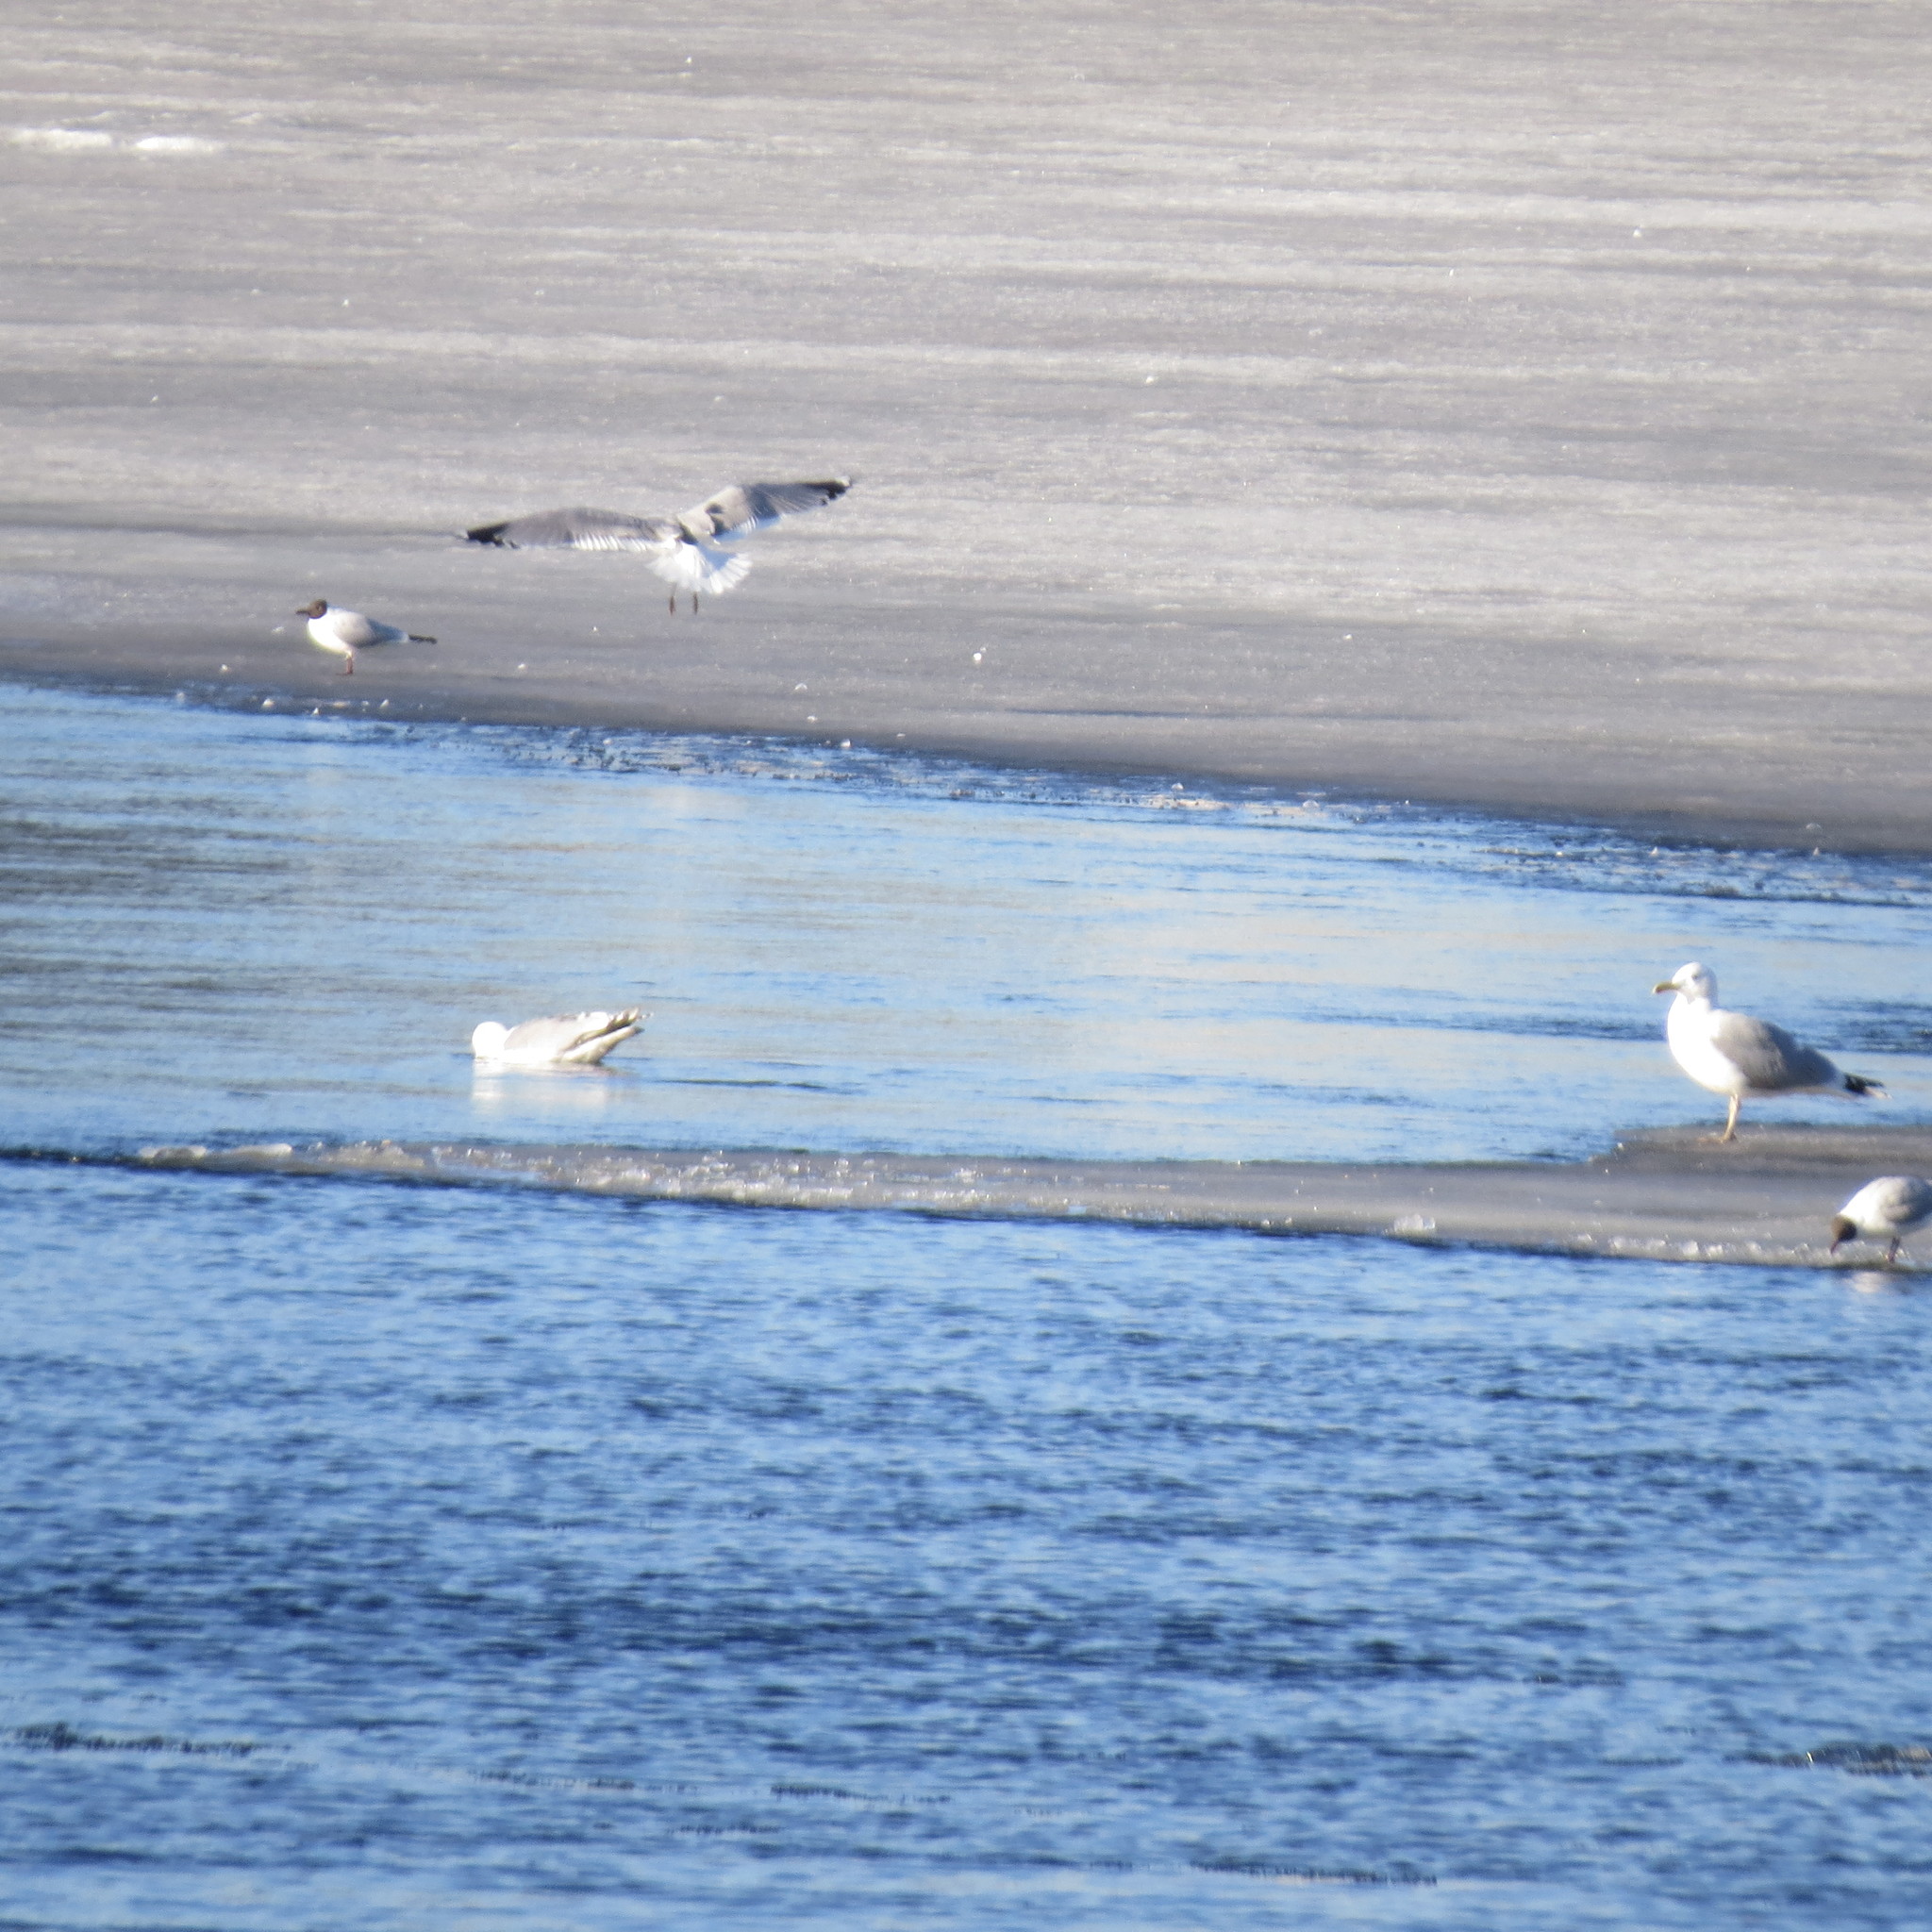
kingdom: Animalia
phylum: Chordata
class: Aves
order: Charadriiformes
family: Laridae
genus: Larus
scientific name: Larus argentatus
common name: Herring gull
